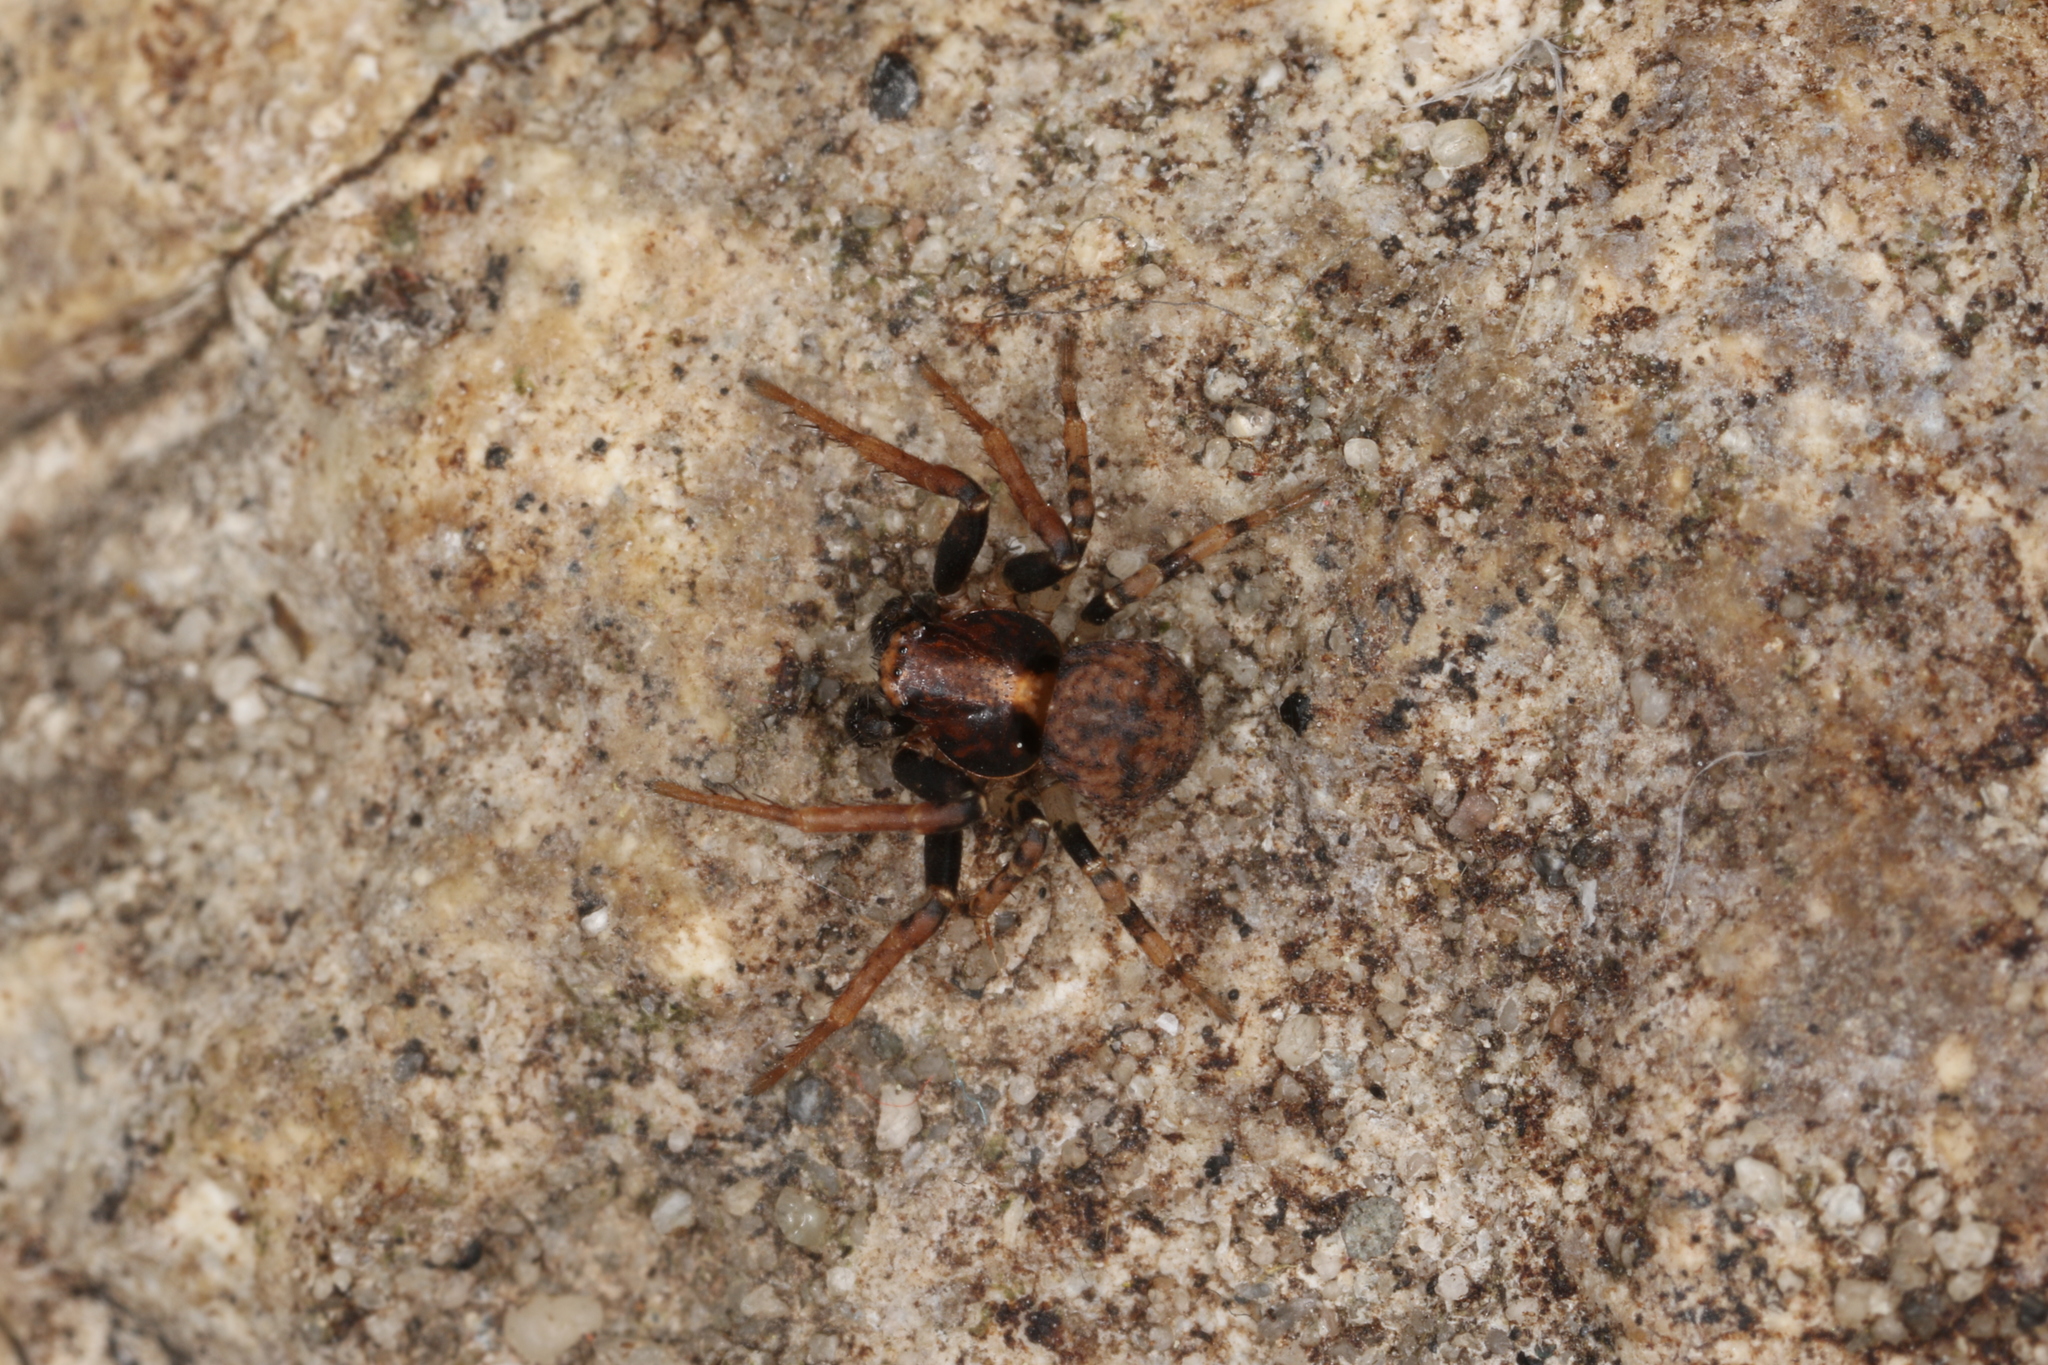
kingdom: Animalia
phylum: Arthropoda
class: Arachnida
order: Araneae
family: Thomisidae
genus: Ozyptila
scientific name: Ozyptila praticola
